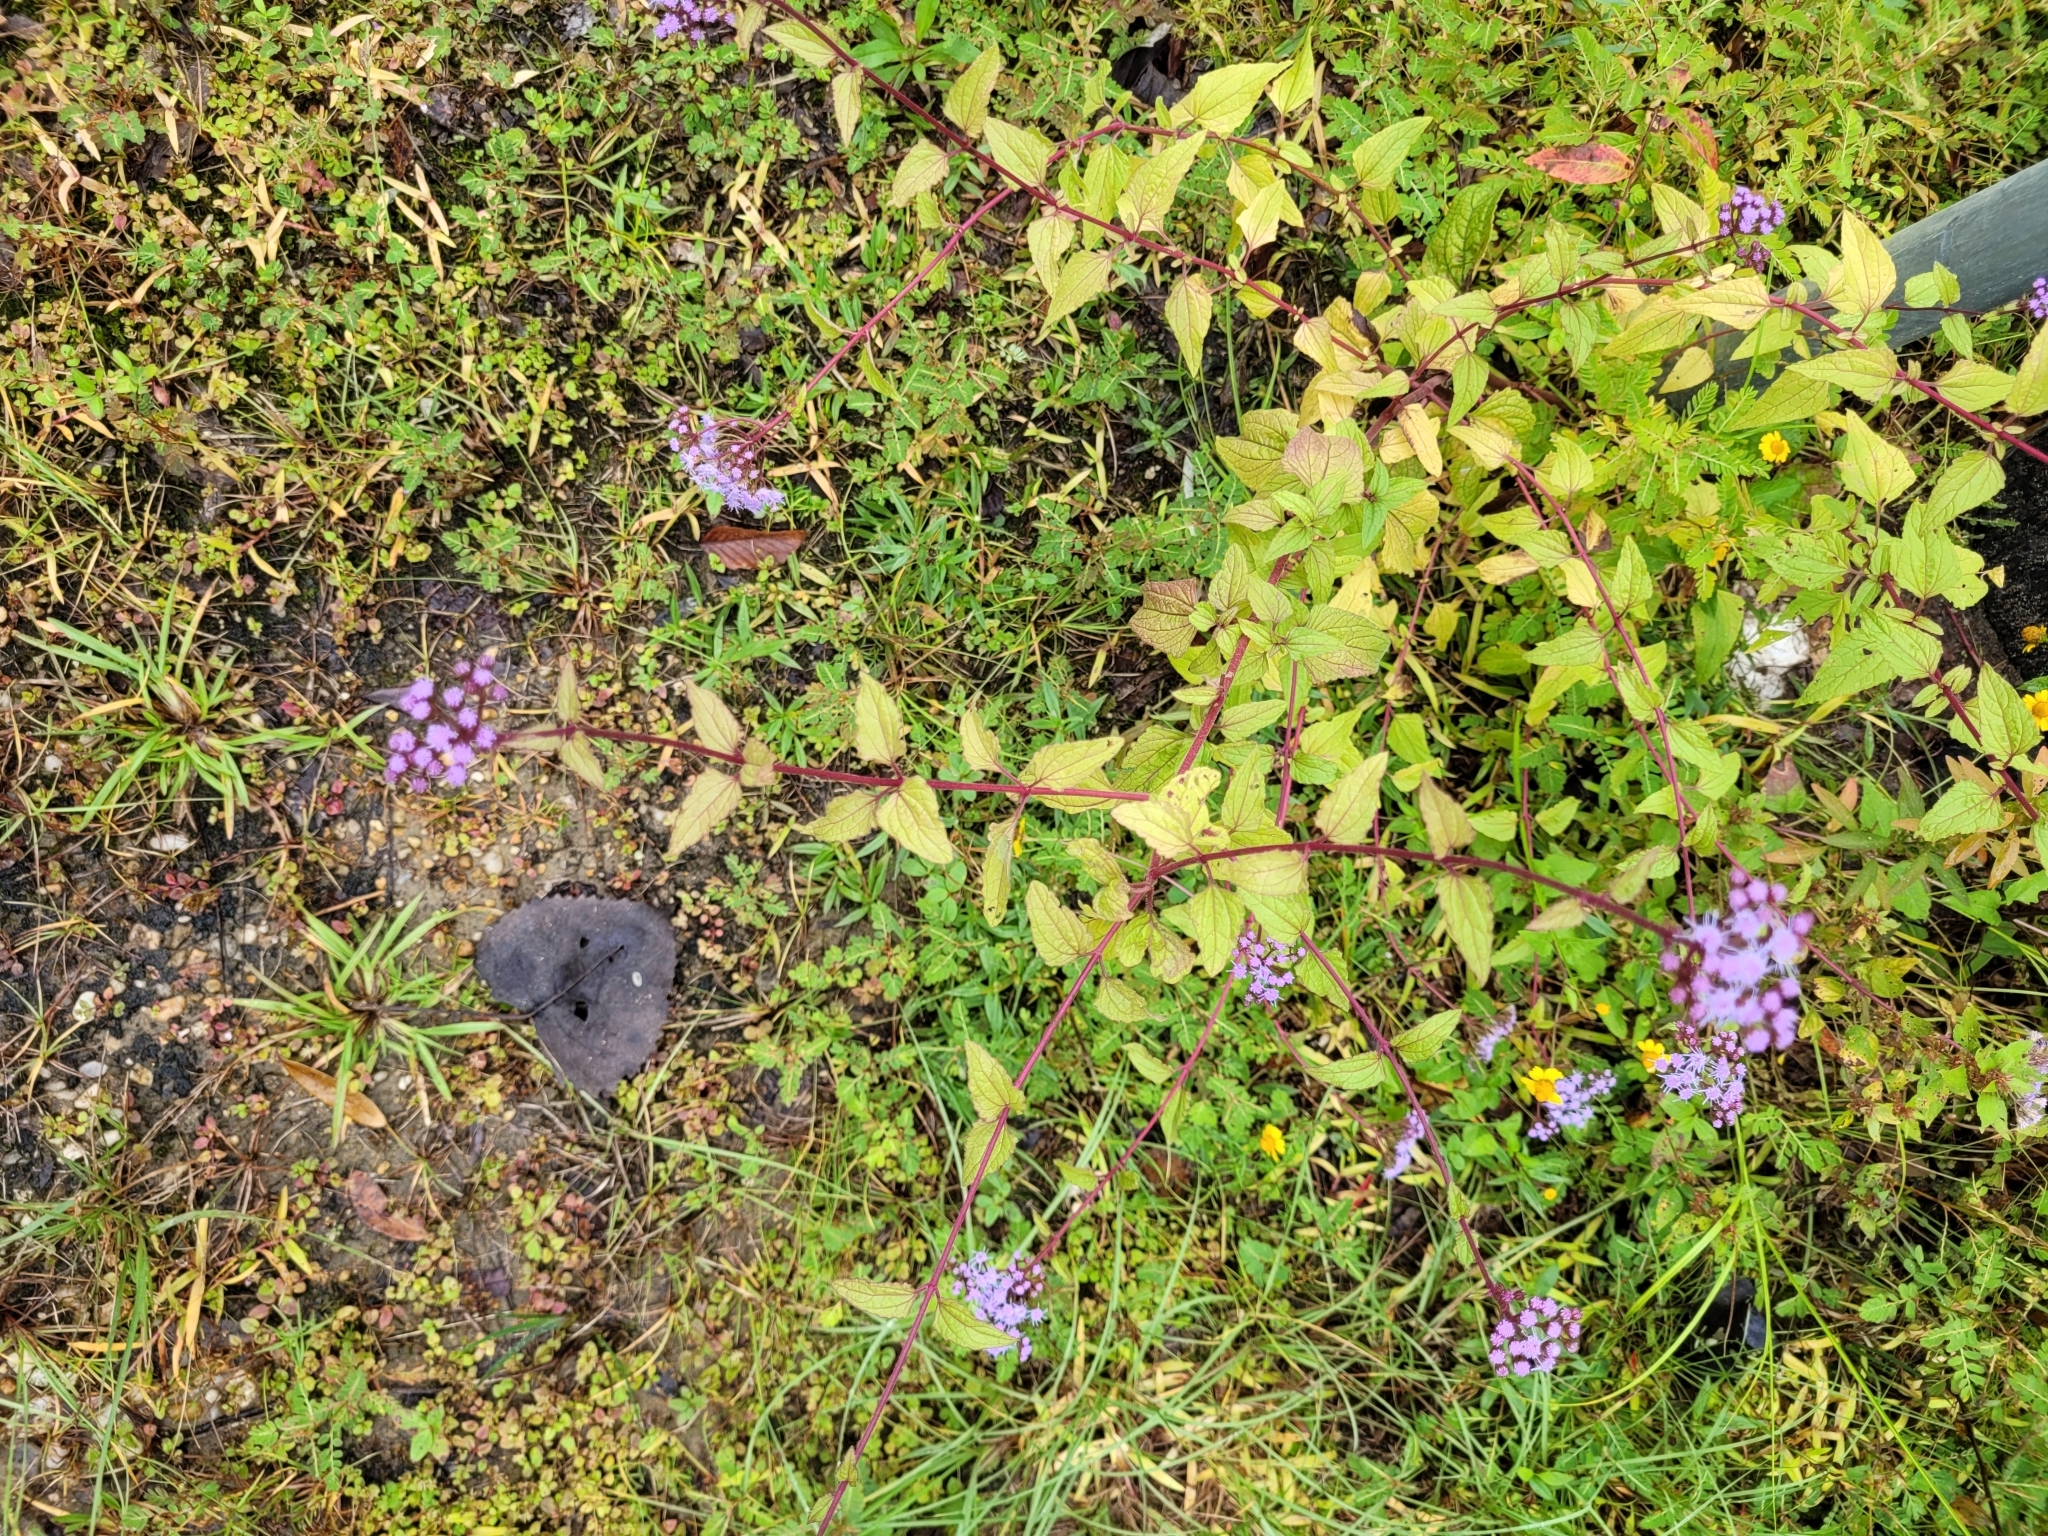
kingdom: Plantae
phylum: Tracheophyta
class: Magnoliopsida
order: Asterales
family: Asteraceae
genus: Conoclinium
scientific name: Conoclinium coelestinum
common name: Blue mistflower
